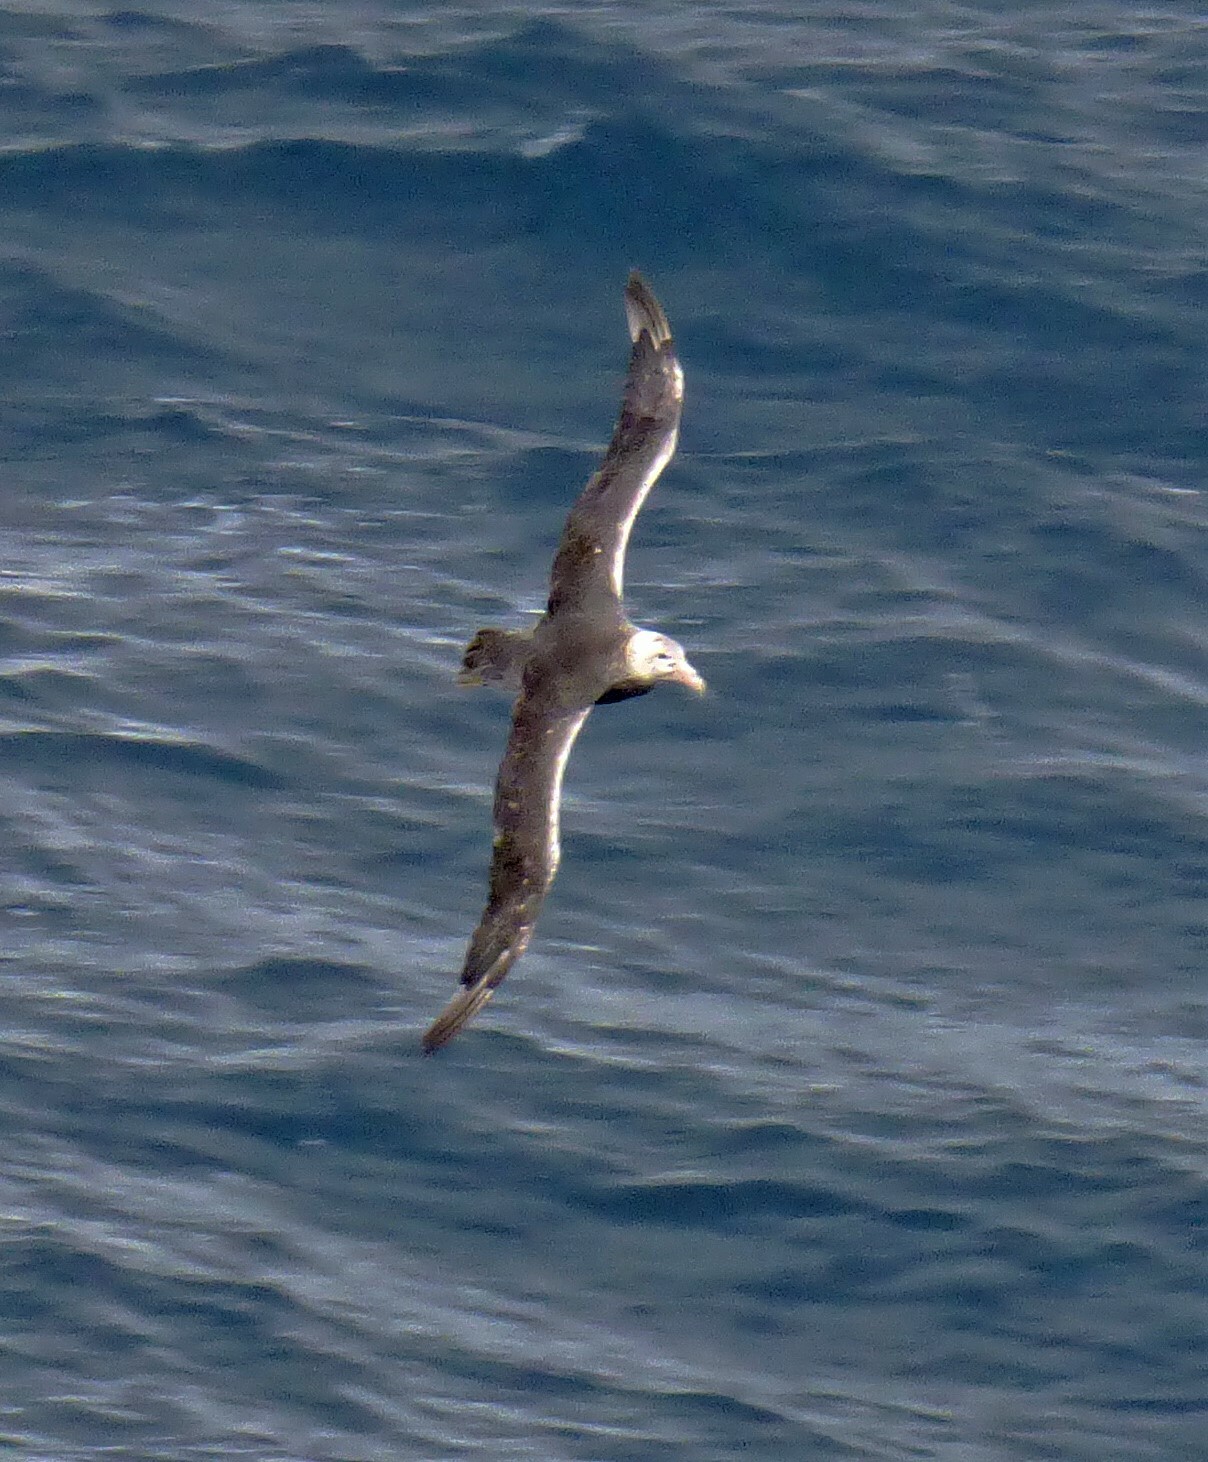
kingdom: Animalia
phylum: Chordata
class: Aves
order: Procellariiformes
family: Procellariidae
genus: Macronectes
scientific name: Macronectes giganteus
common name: Southern giant petrel
